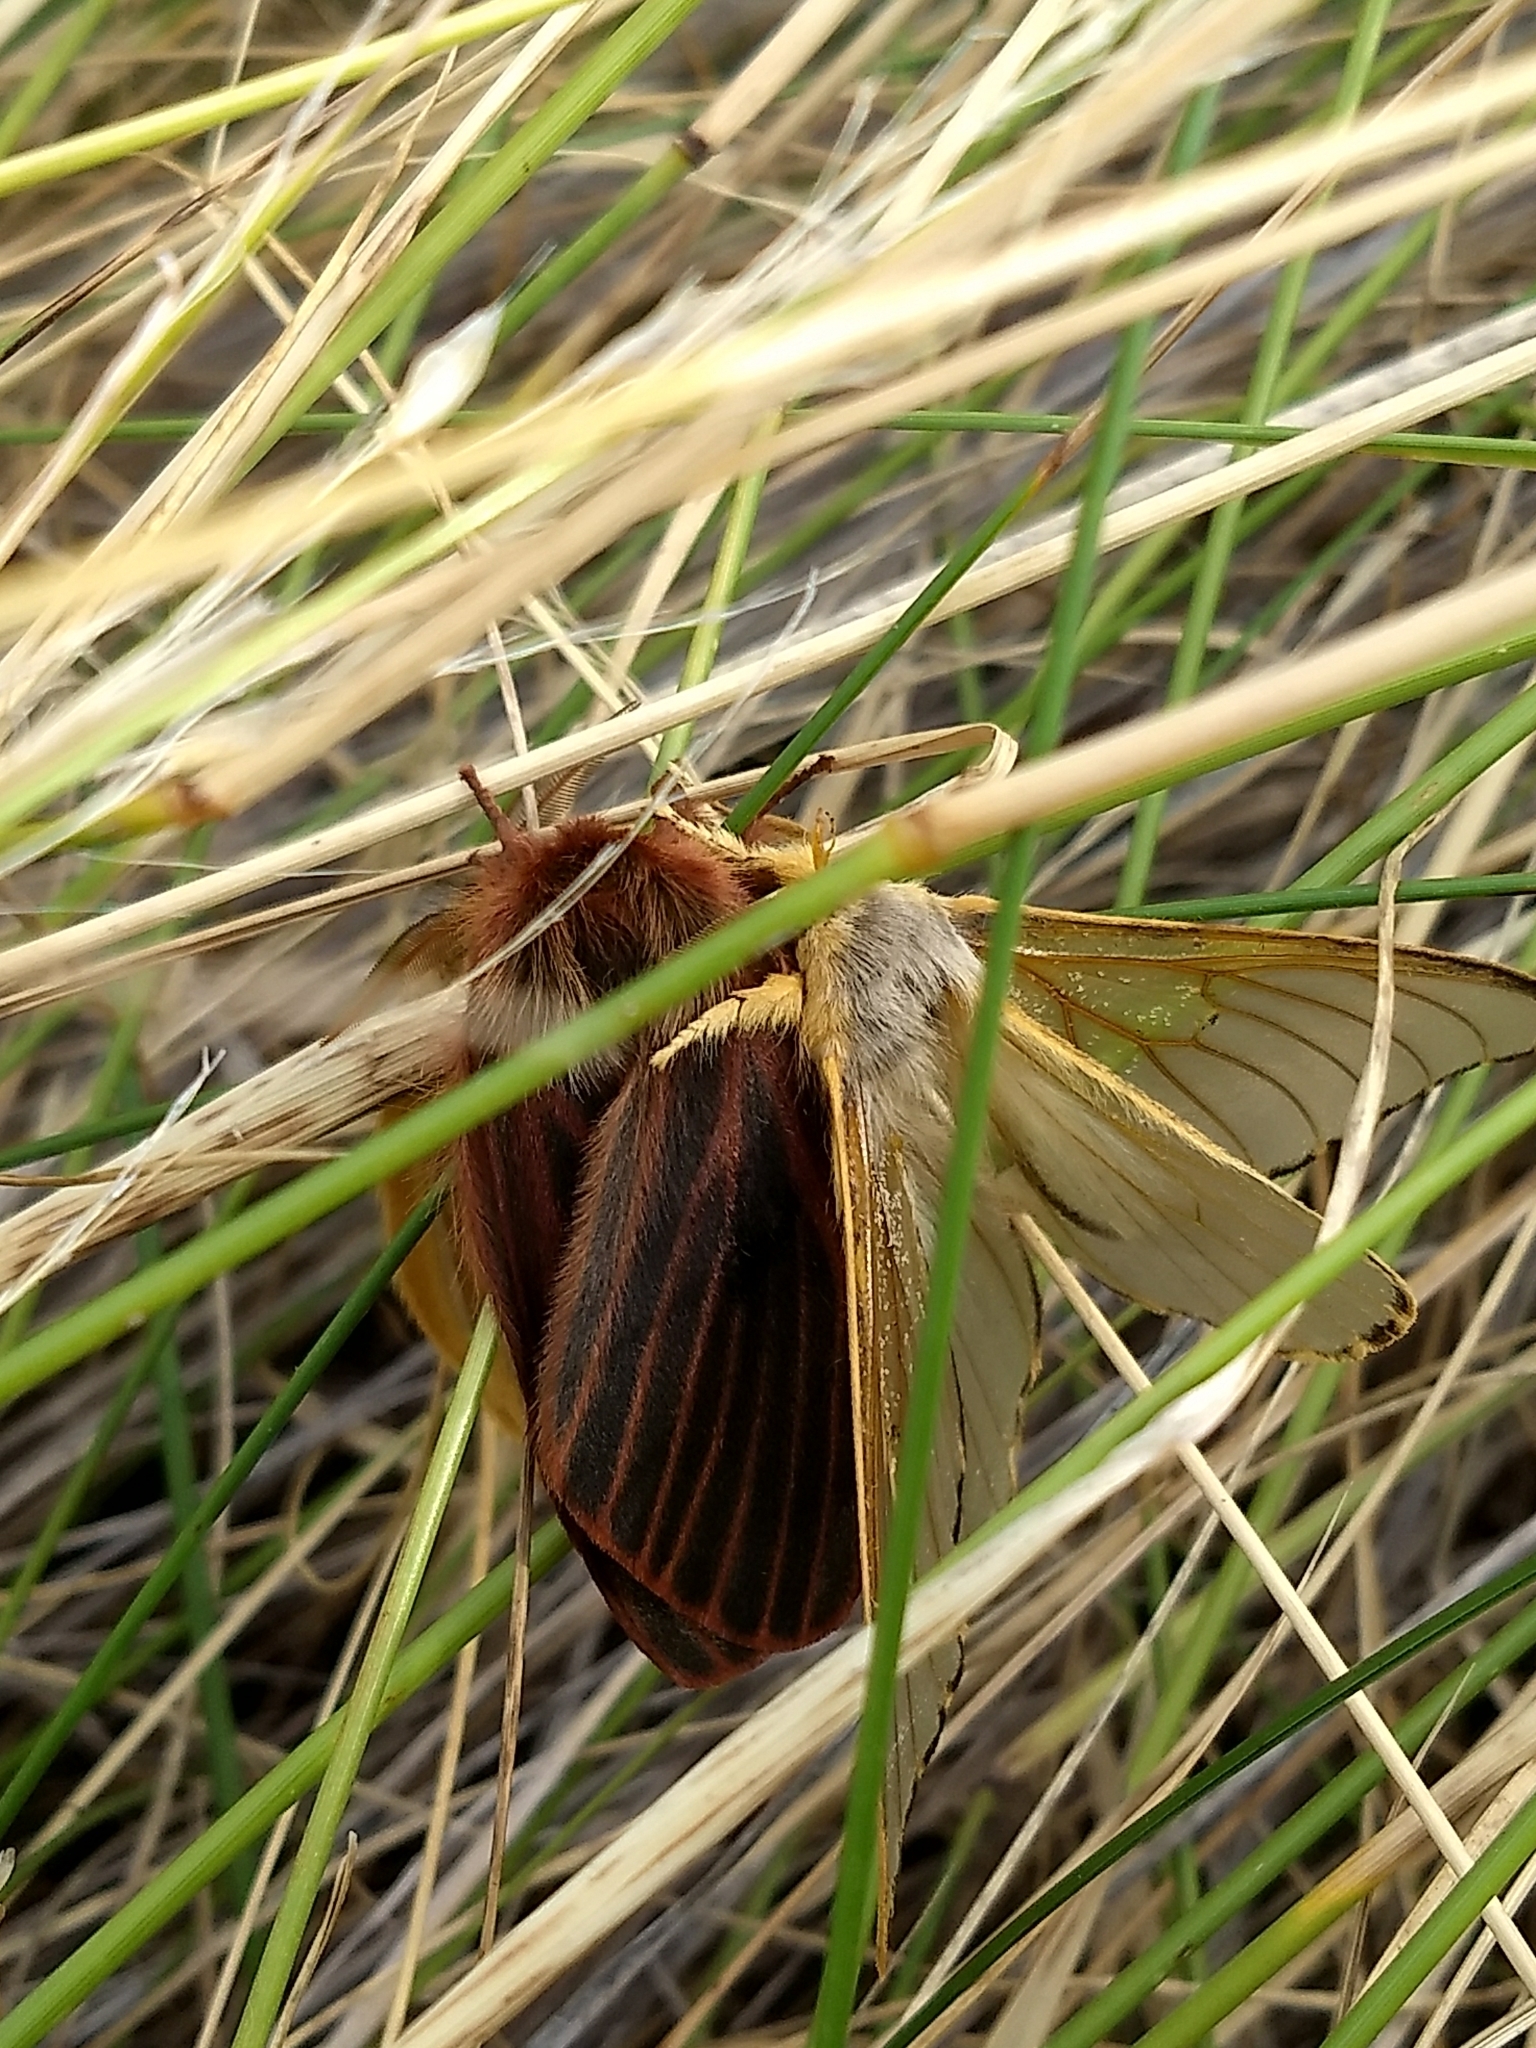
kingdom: Animalia
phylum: Arthropoda
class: Insecta
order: Lepidoptera
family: Saturniidae
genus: Heliconisa
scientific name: Heliconisa pagenstecheri
